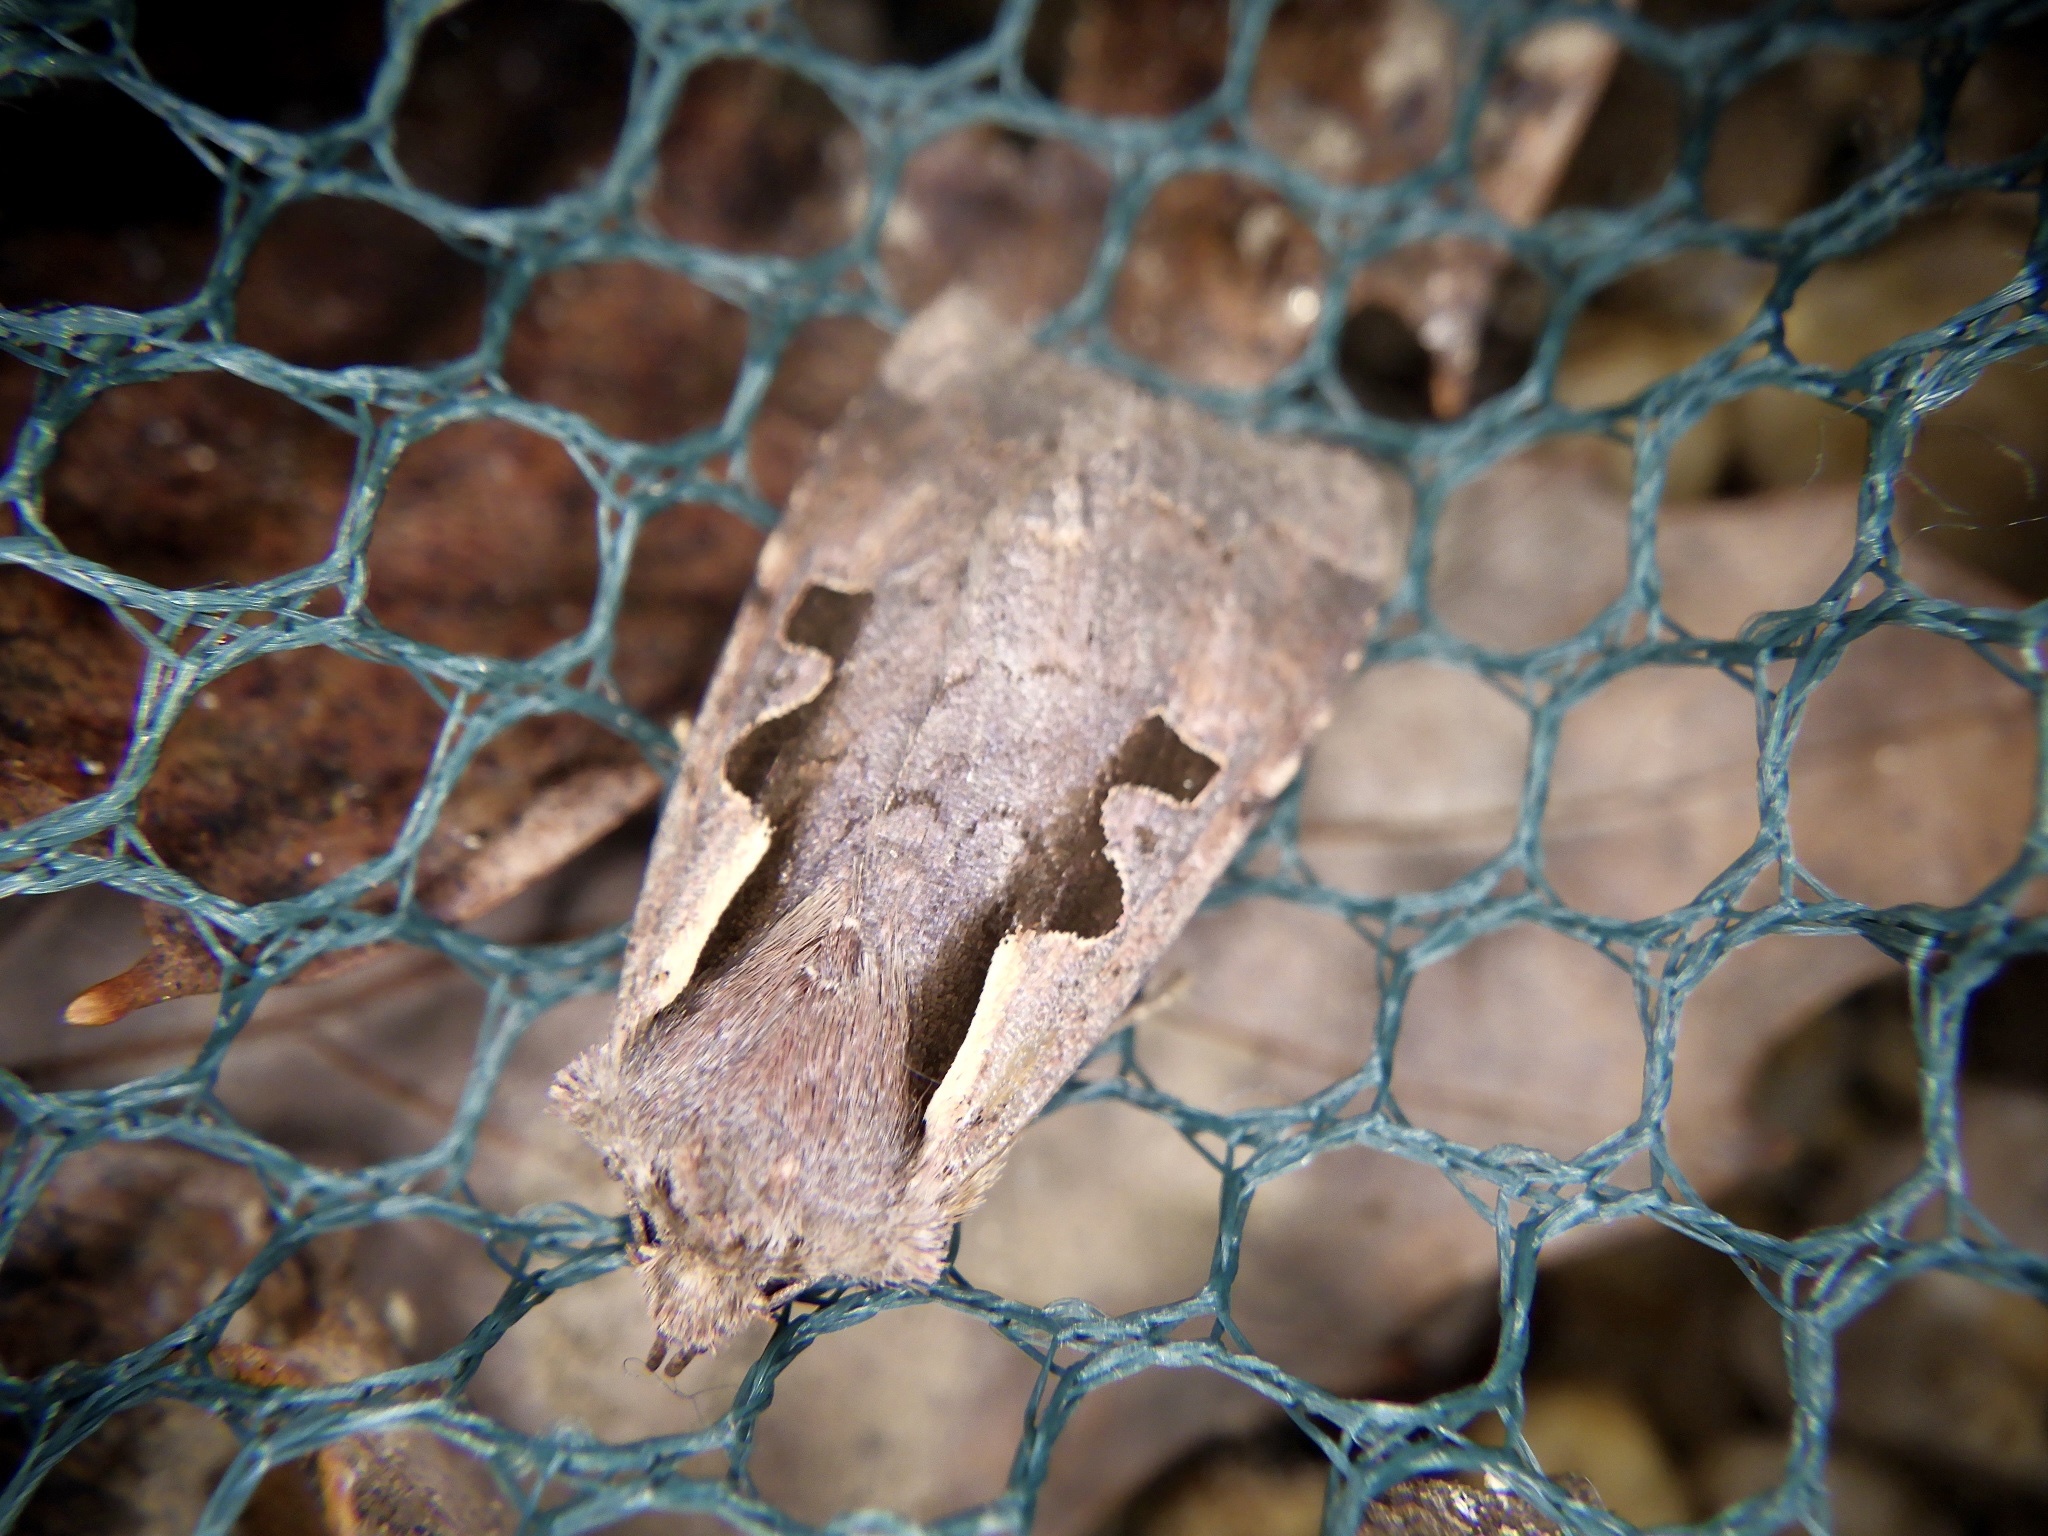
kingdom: Animalia
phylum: Arthropoda
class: Insecta
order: Lepidoptera
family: Noctuidae
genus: Sugitania
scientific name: Sugitania lepida
